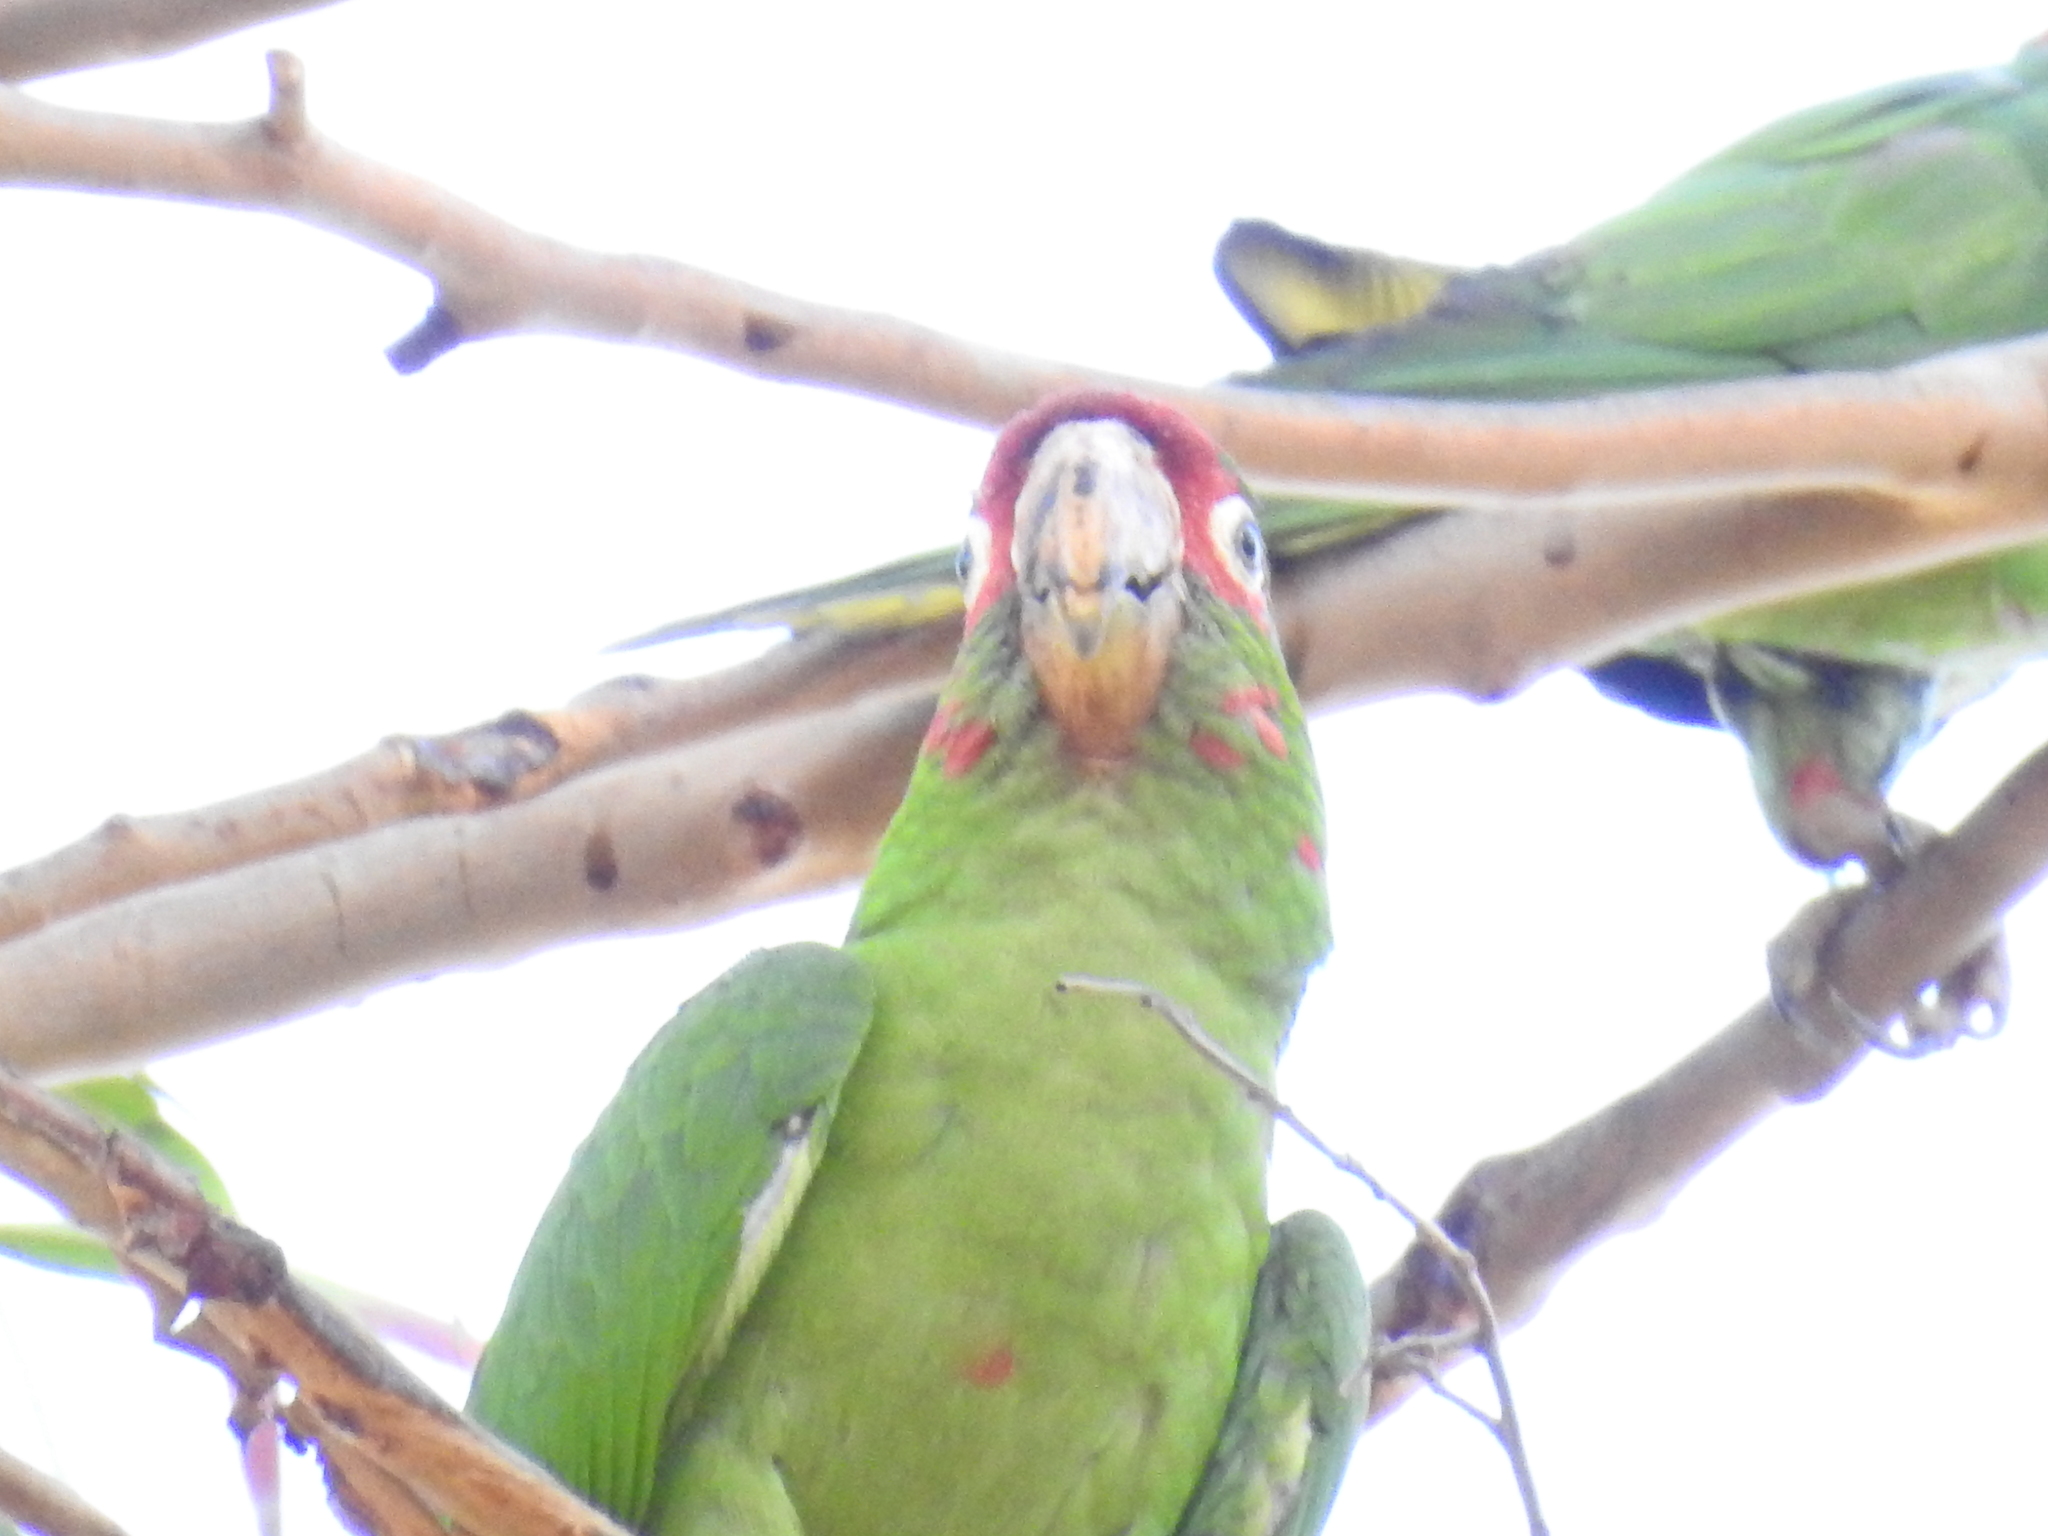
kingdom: Animalia
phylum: Chordata
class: Aves
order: Psittaciformes
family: Psittacidae
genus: Aratinga
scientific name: Aratinga mitrata
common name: Mitred parakeet
